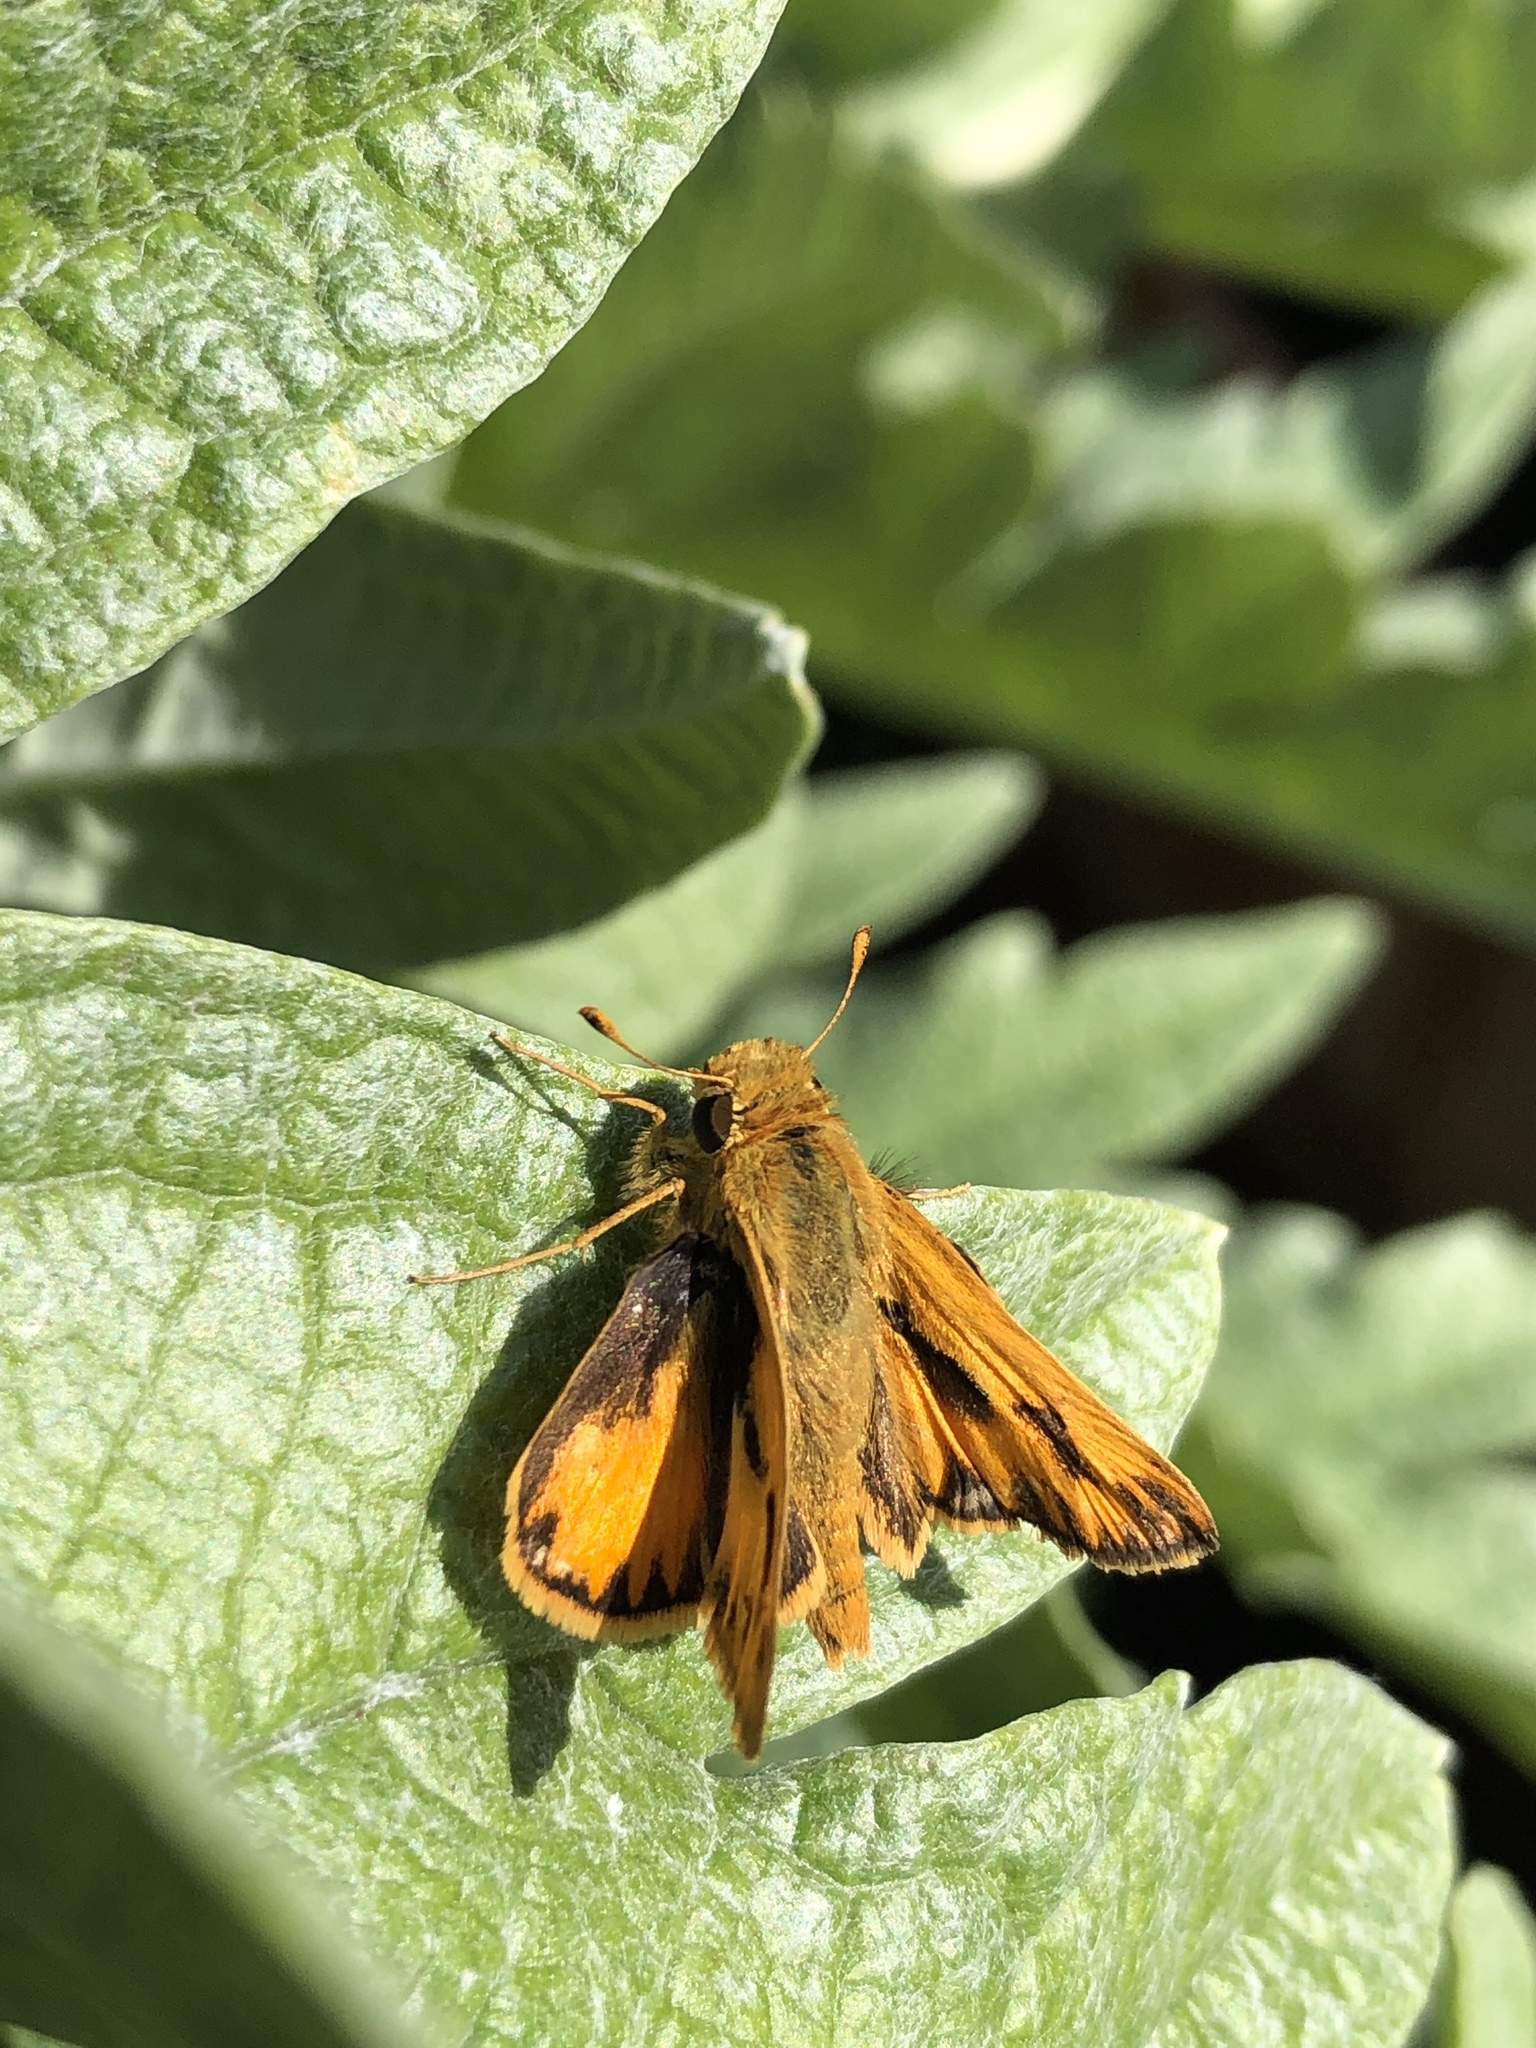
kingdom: Animalia
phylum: Arthropoda
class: Insecta
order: Lepidoptera
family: Hesperiidae
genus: Hylephila
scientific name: Hylephila phyleus
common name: Fiery skipper
